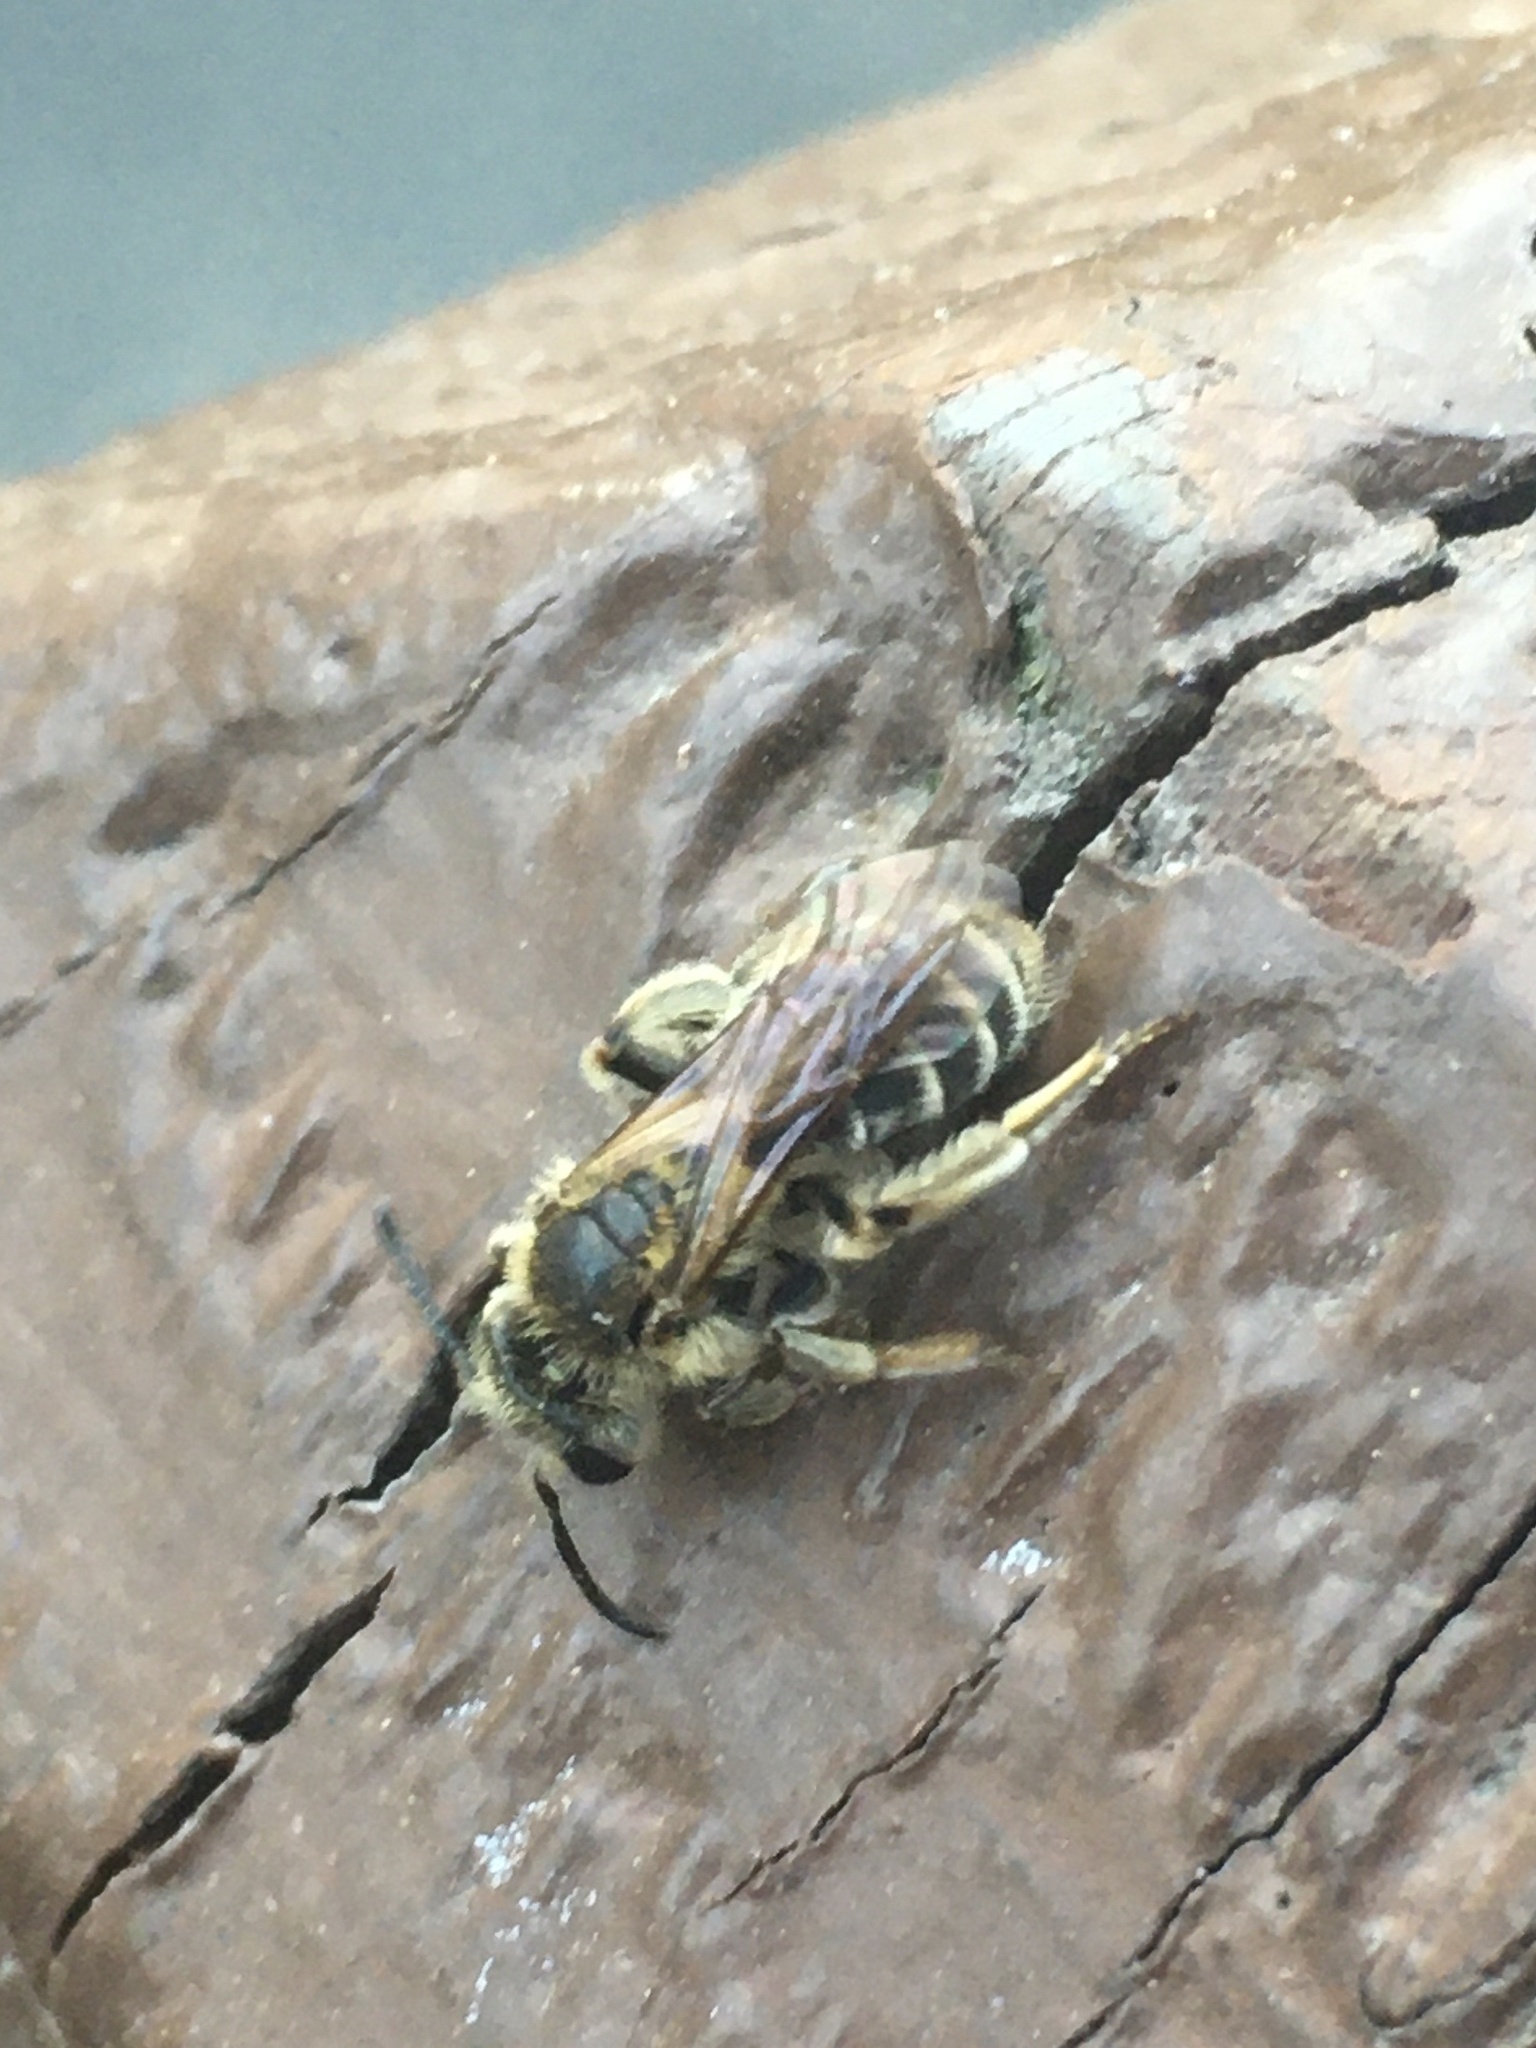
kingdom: Animalia
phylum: Arthropoda
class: Insecta
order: Hymenoptera
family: Andrenidae
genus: Andrena
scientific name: Andrena wilkella
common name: Wilke's mining bee
